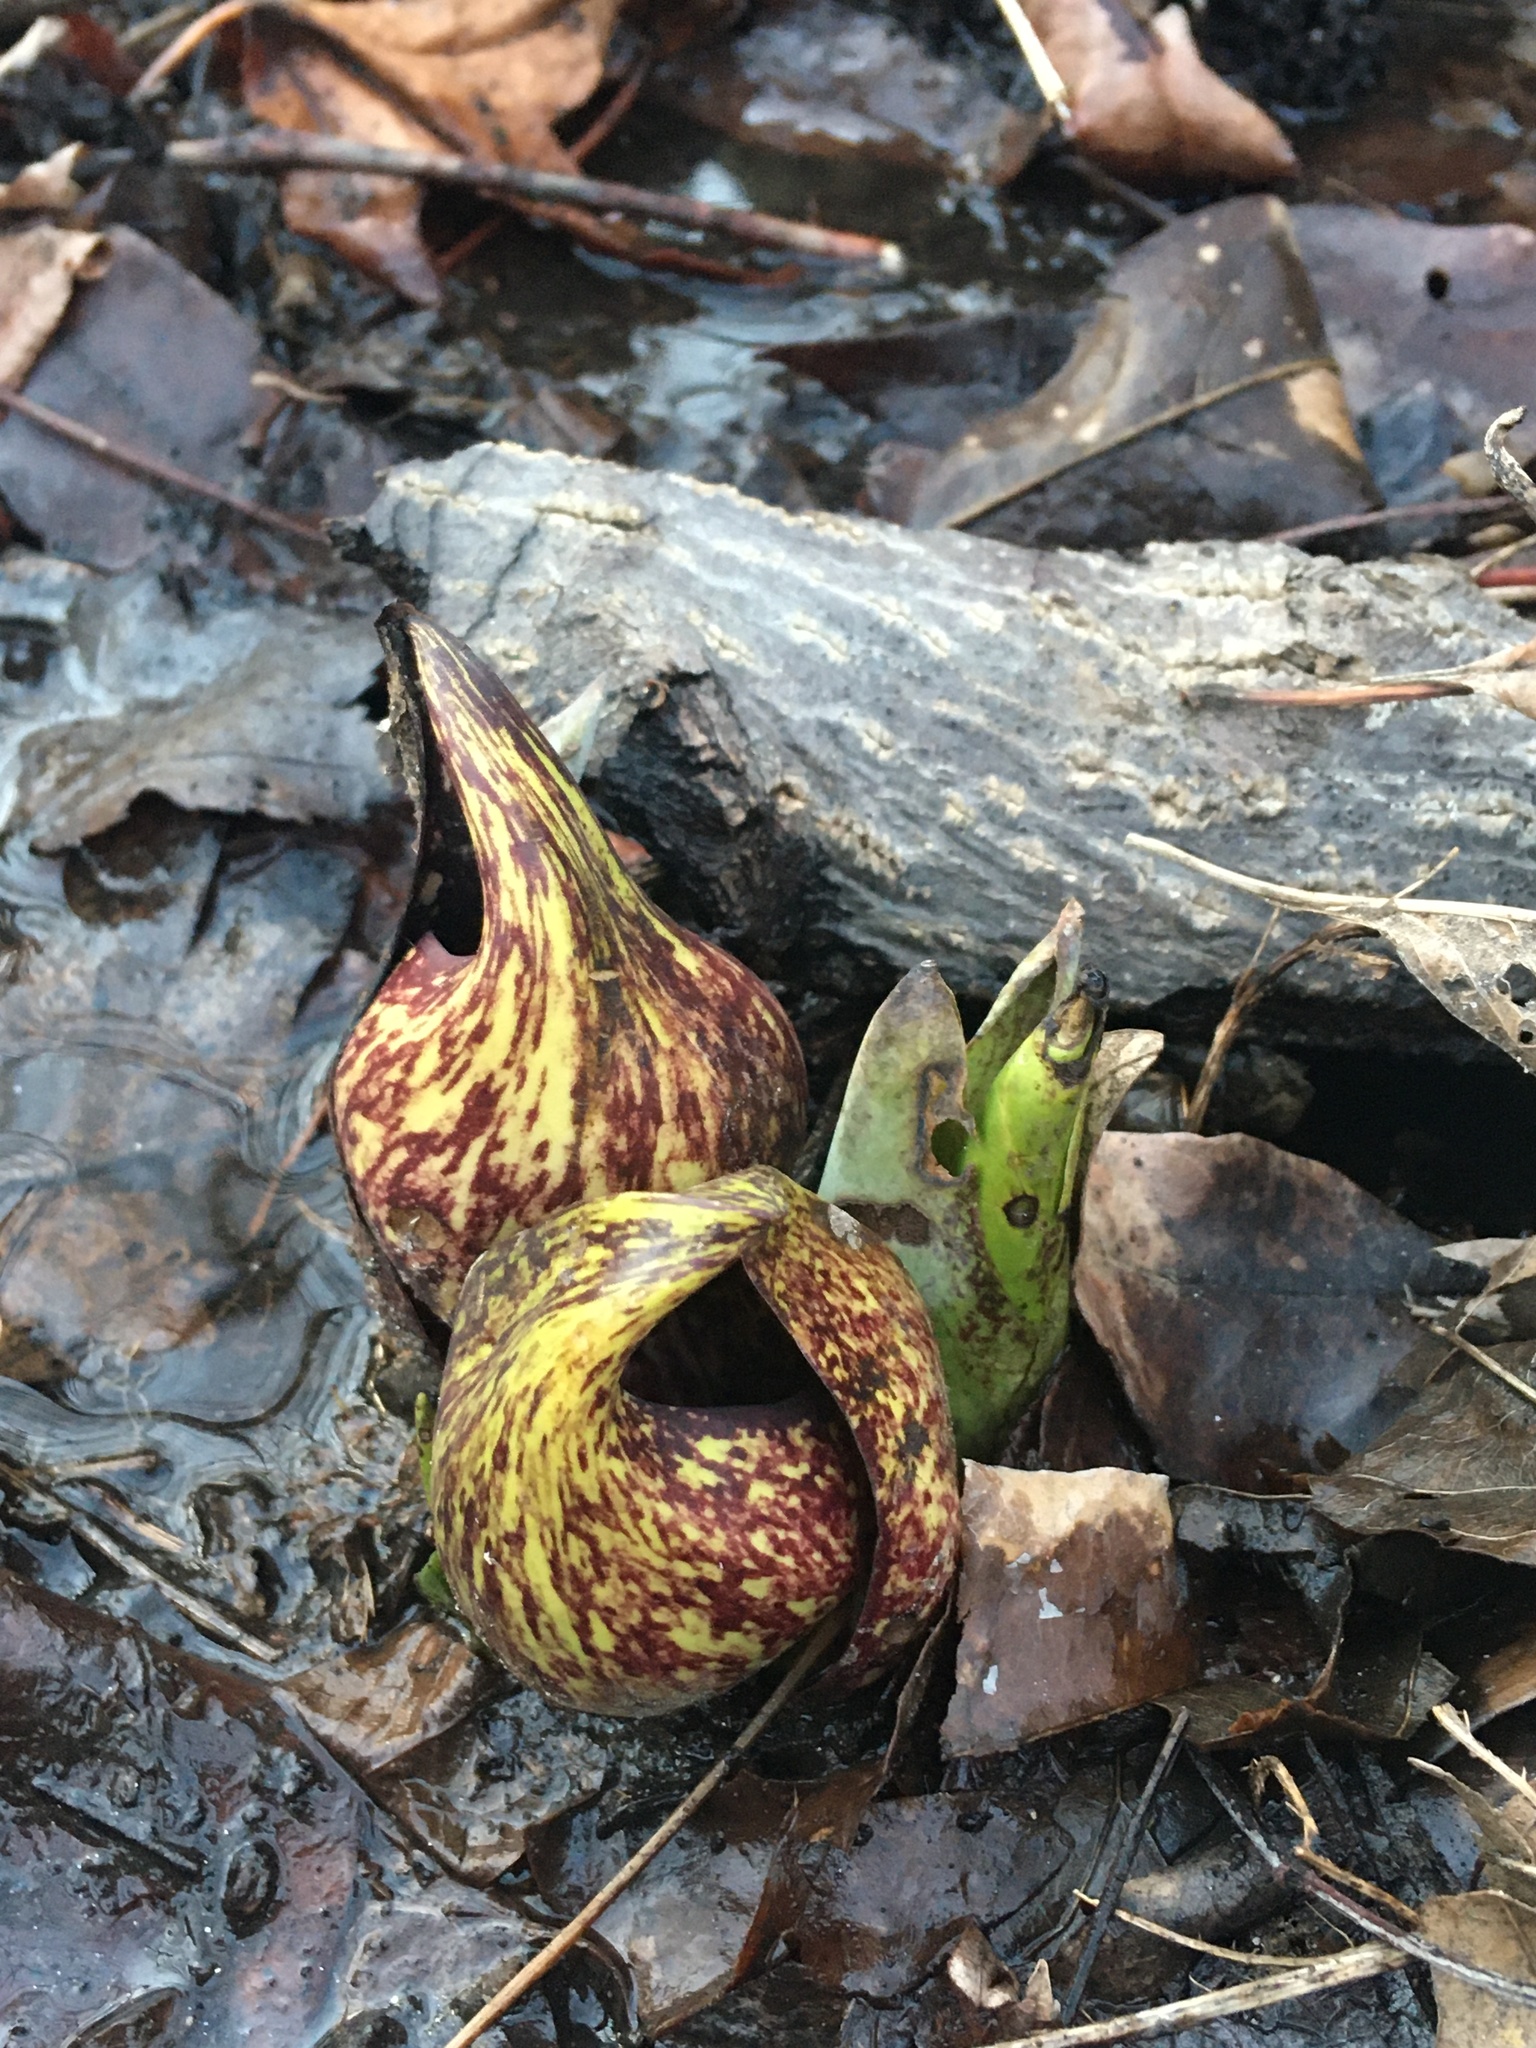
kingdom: Plantae
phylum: Tracheophyta
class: Liliopsida
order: Alismatales
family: Araceae
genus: Symplocarpus
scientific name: Symplocarpus foetidus
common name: Eastern skunk cabbage
